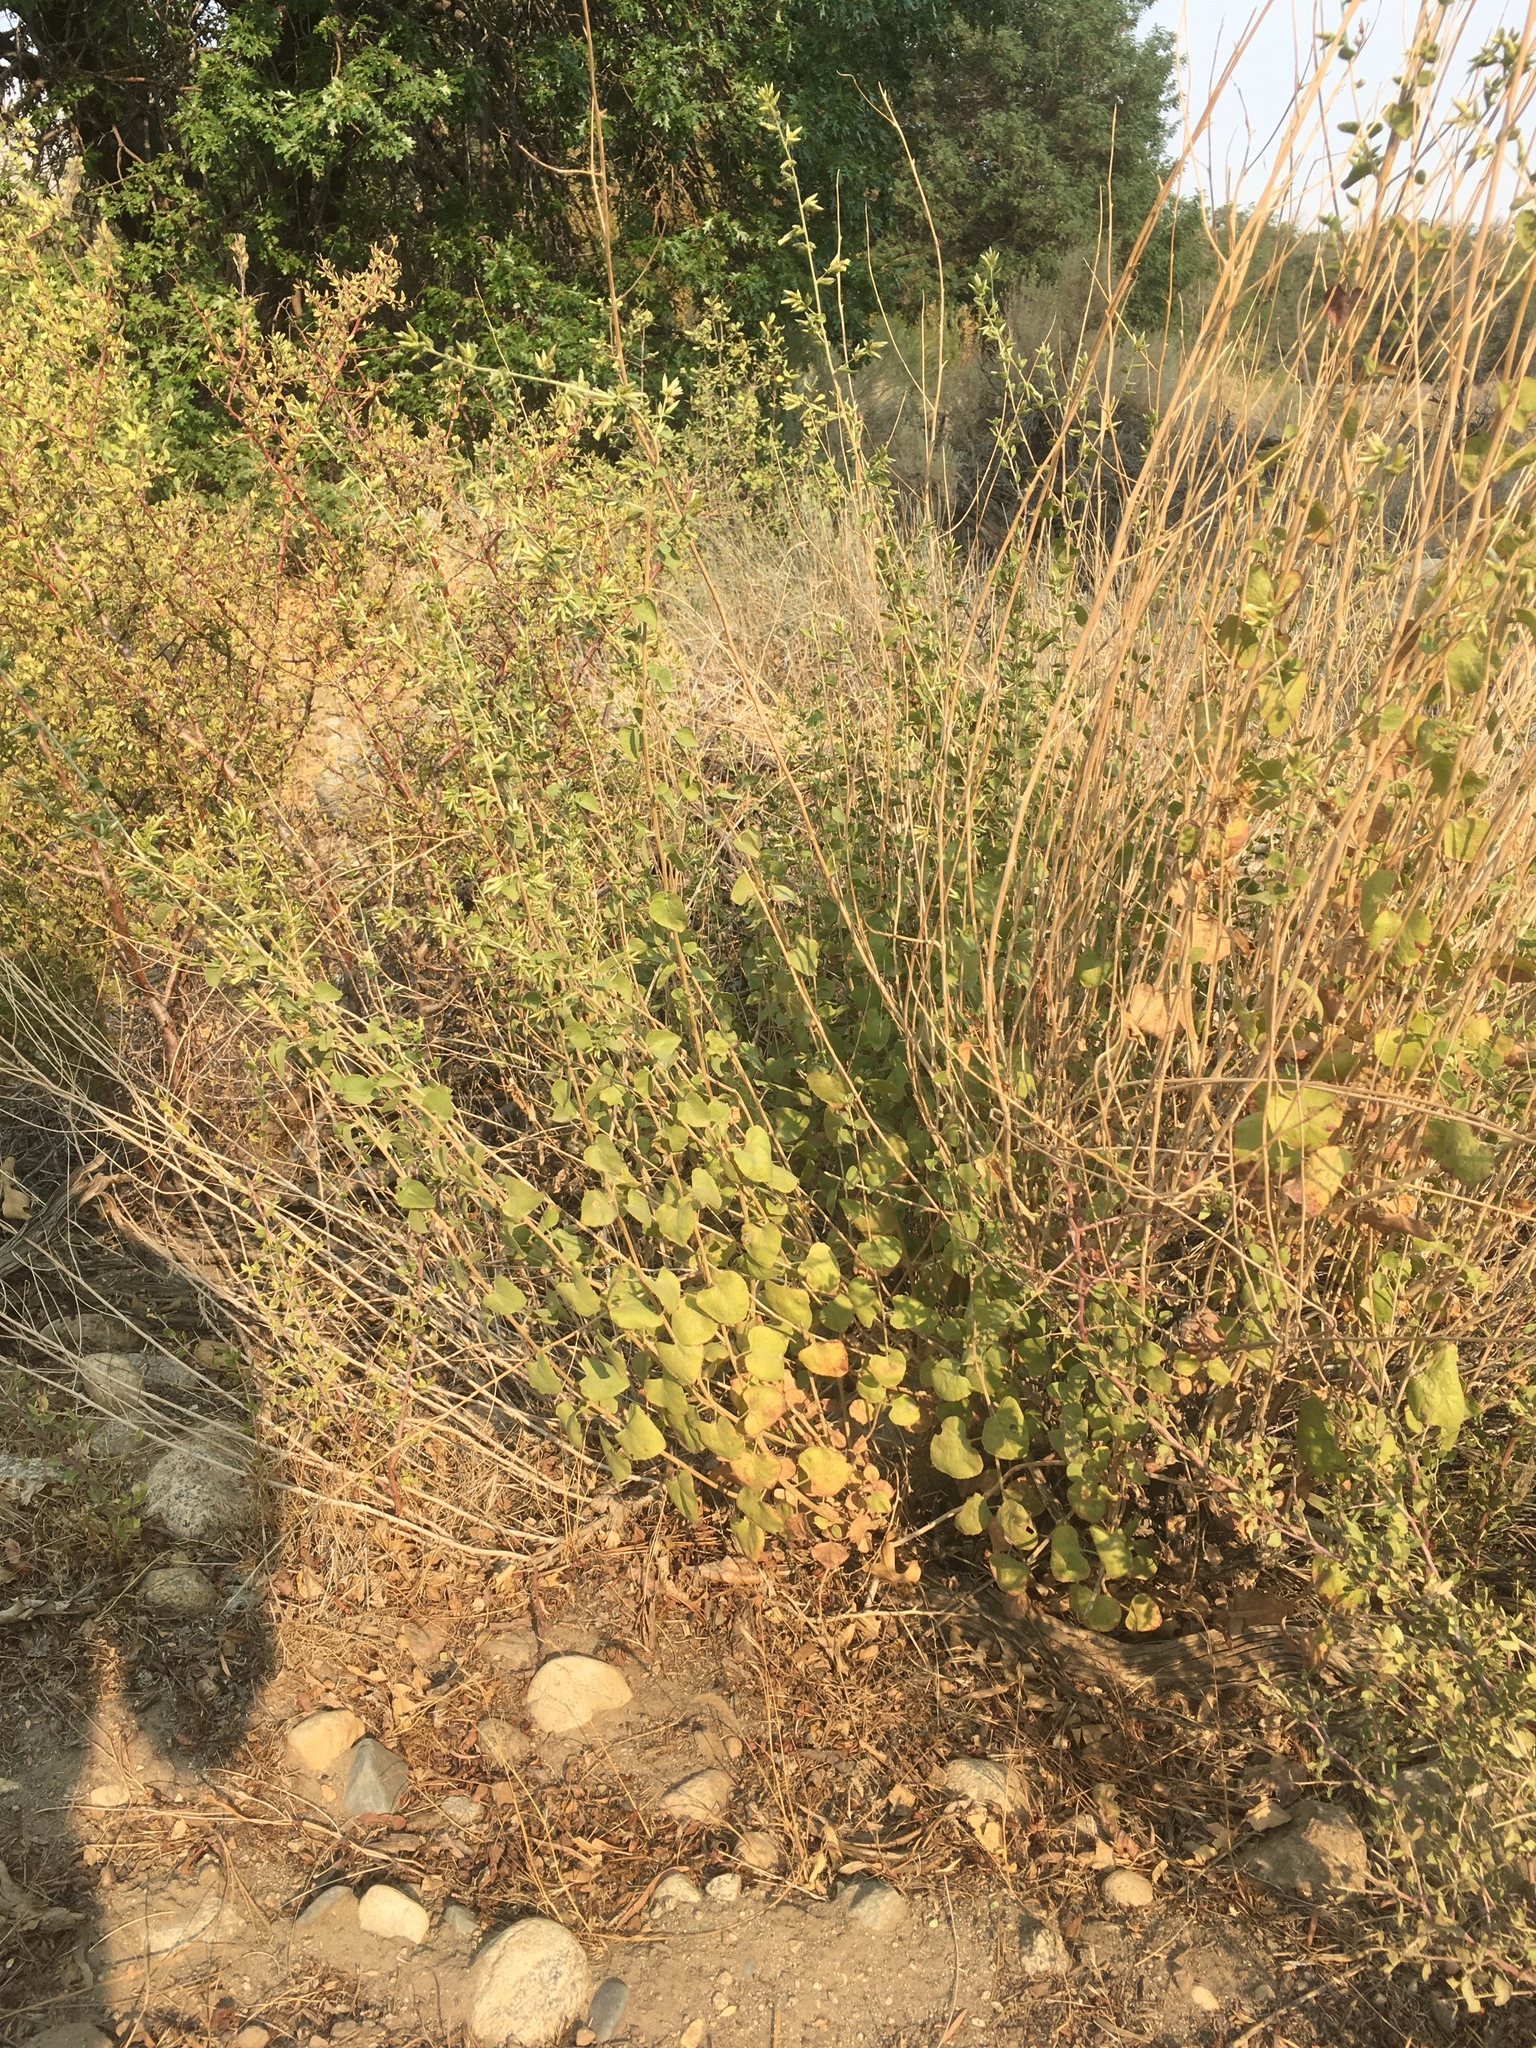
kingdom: Plantae
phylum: Tracheophyta
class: Magnoliopsida
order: Asterales
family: Asteraceae
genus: Brickellia
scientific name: Brickellia californica
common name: California brickellbush
